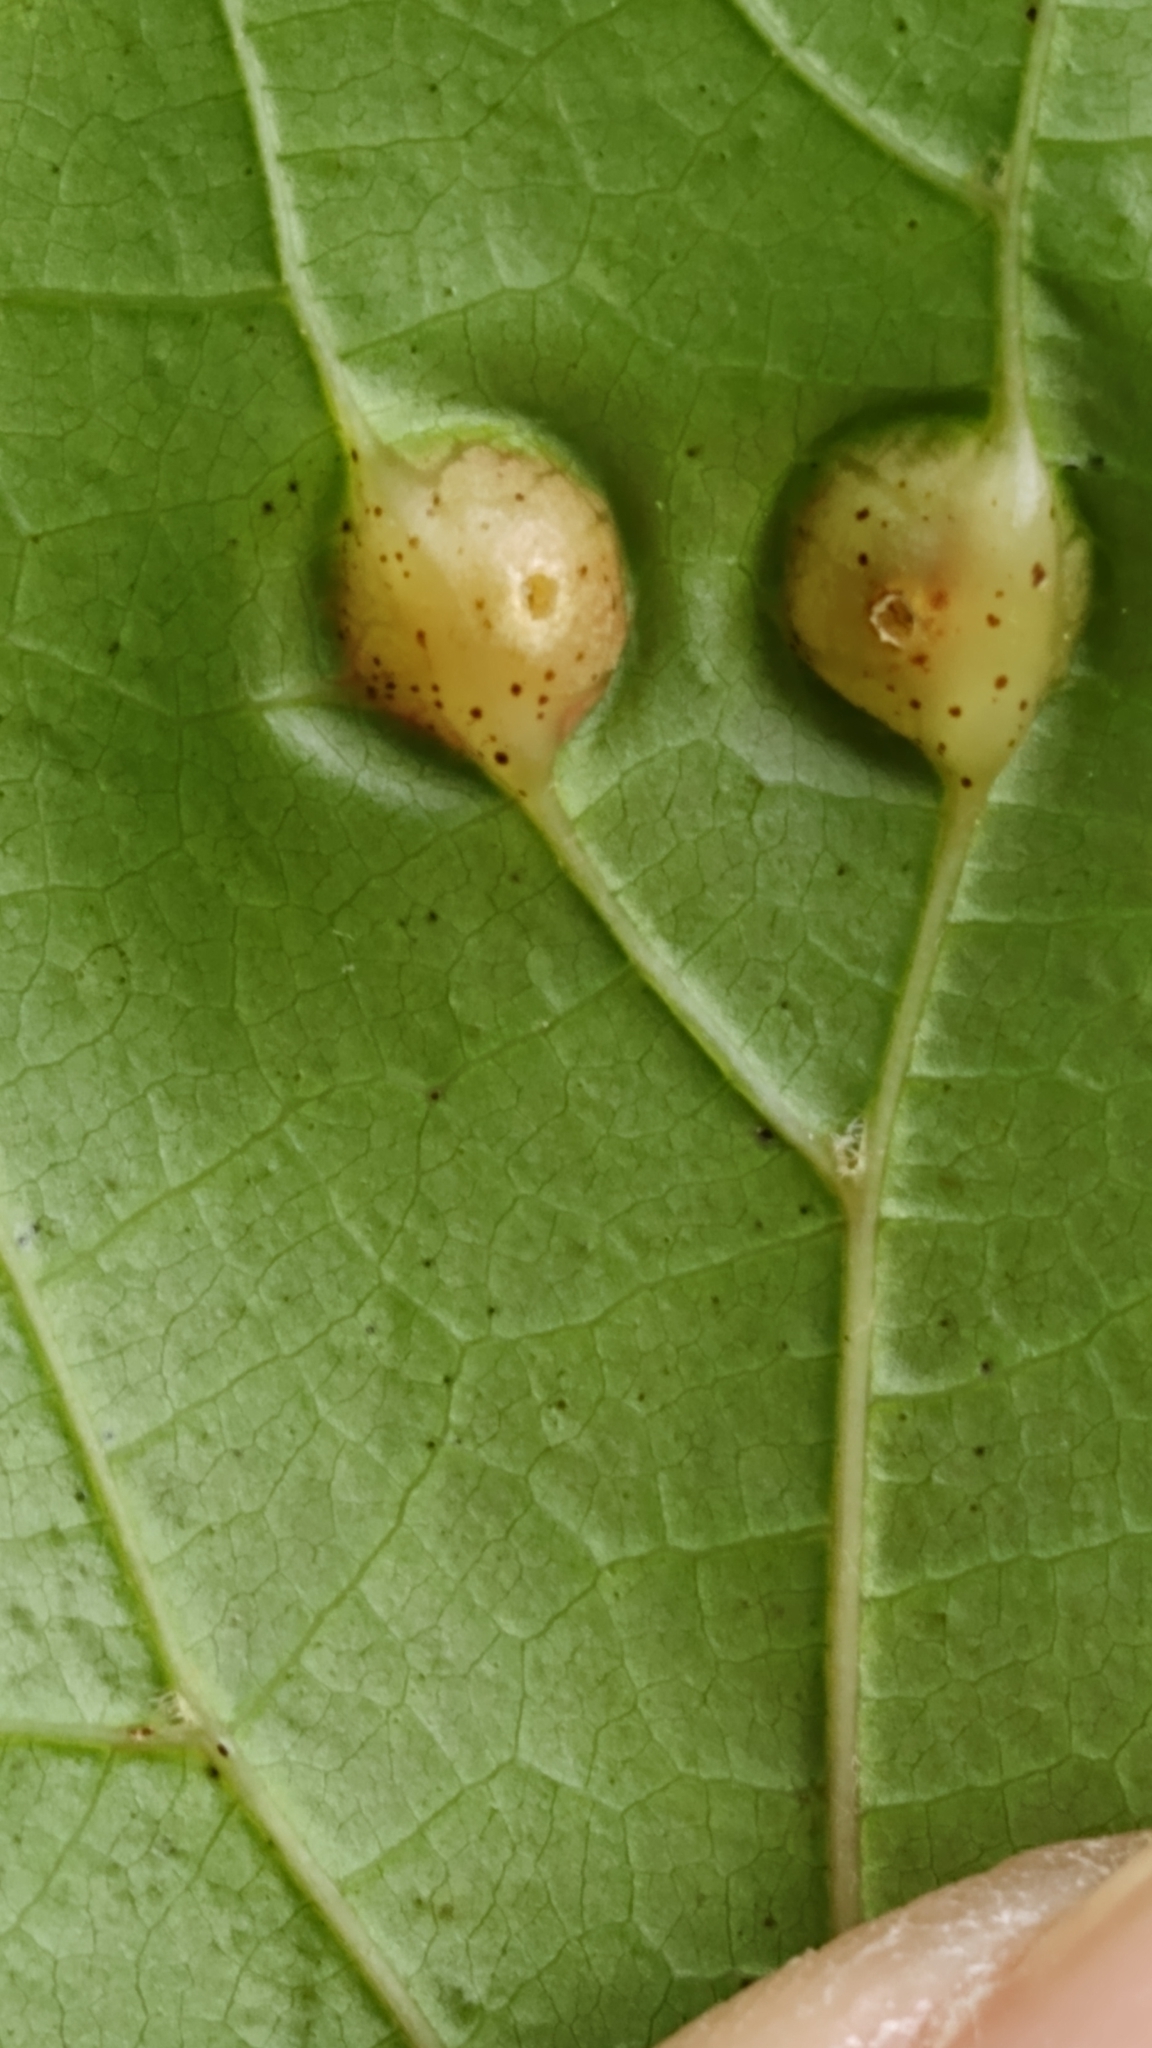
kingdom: Animalia
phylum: Arthropoda
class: Insecta
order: Diptera
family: Cecidomyiidae
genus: Vitisiella
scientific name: Vitisiella brevicauda
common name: Grape tumid gallmaker midge
